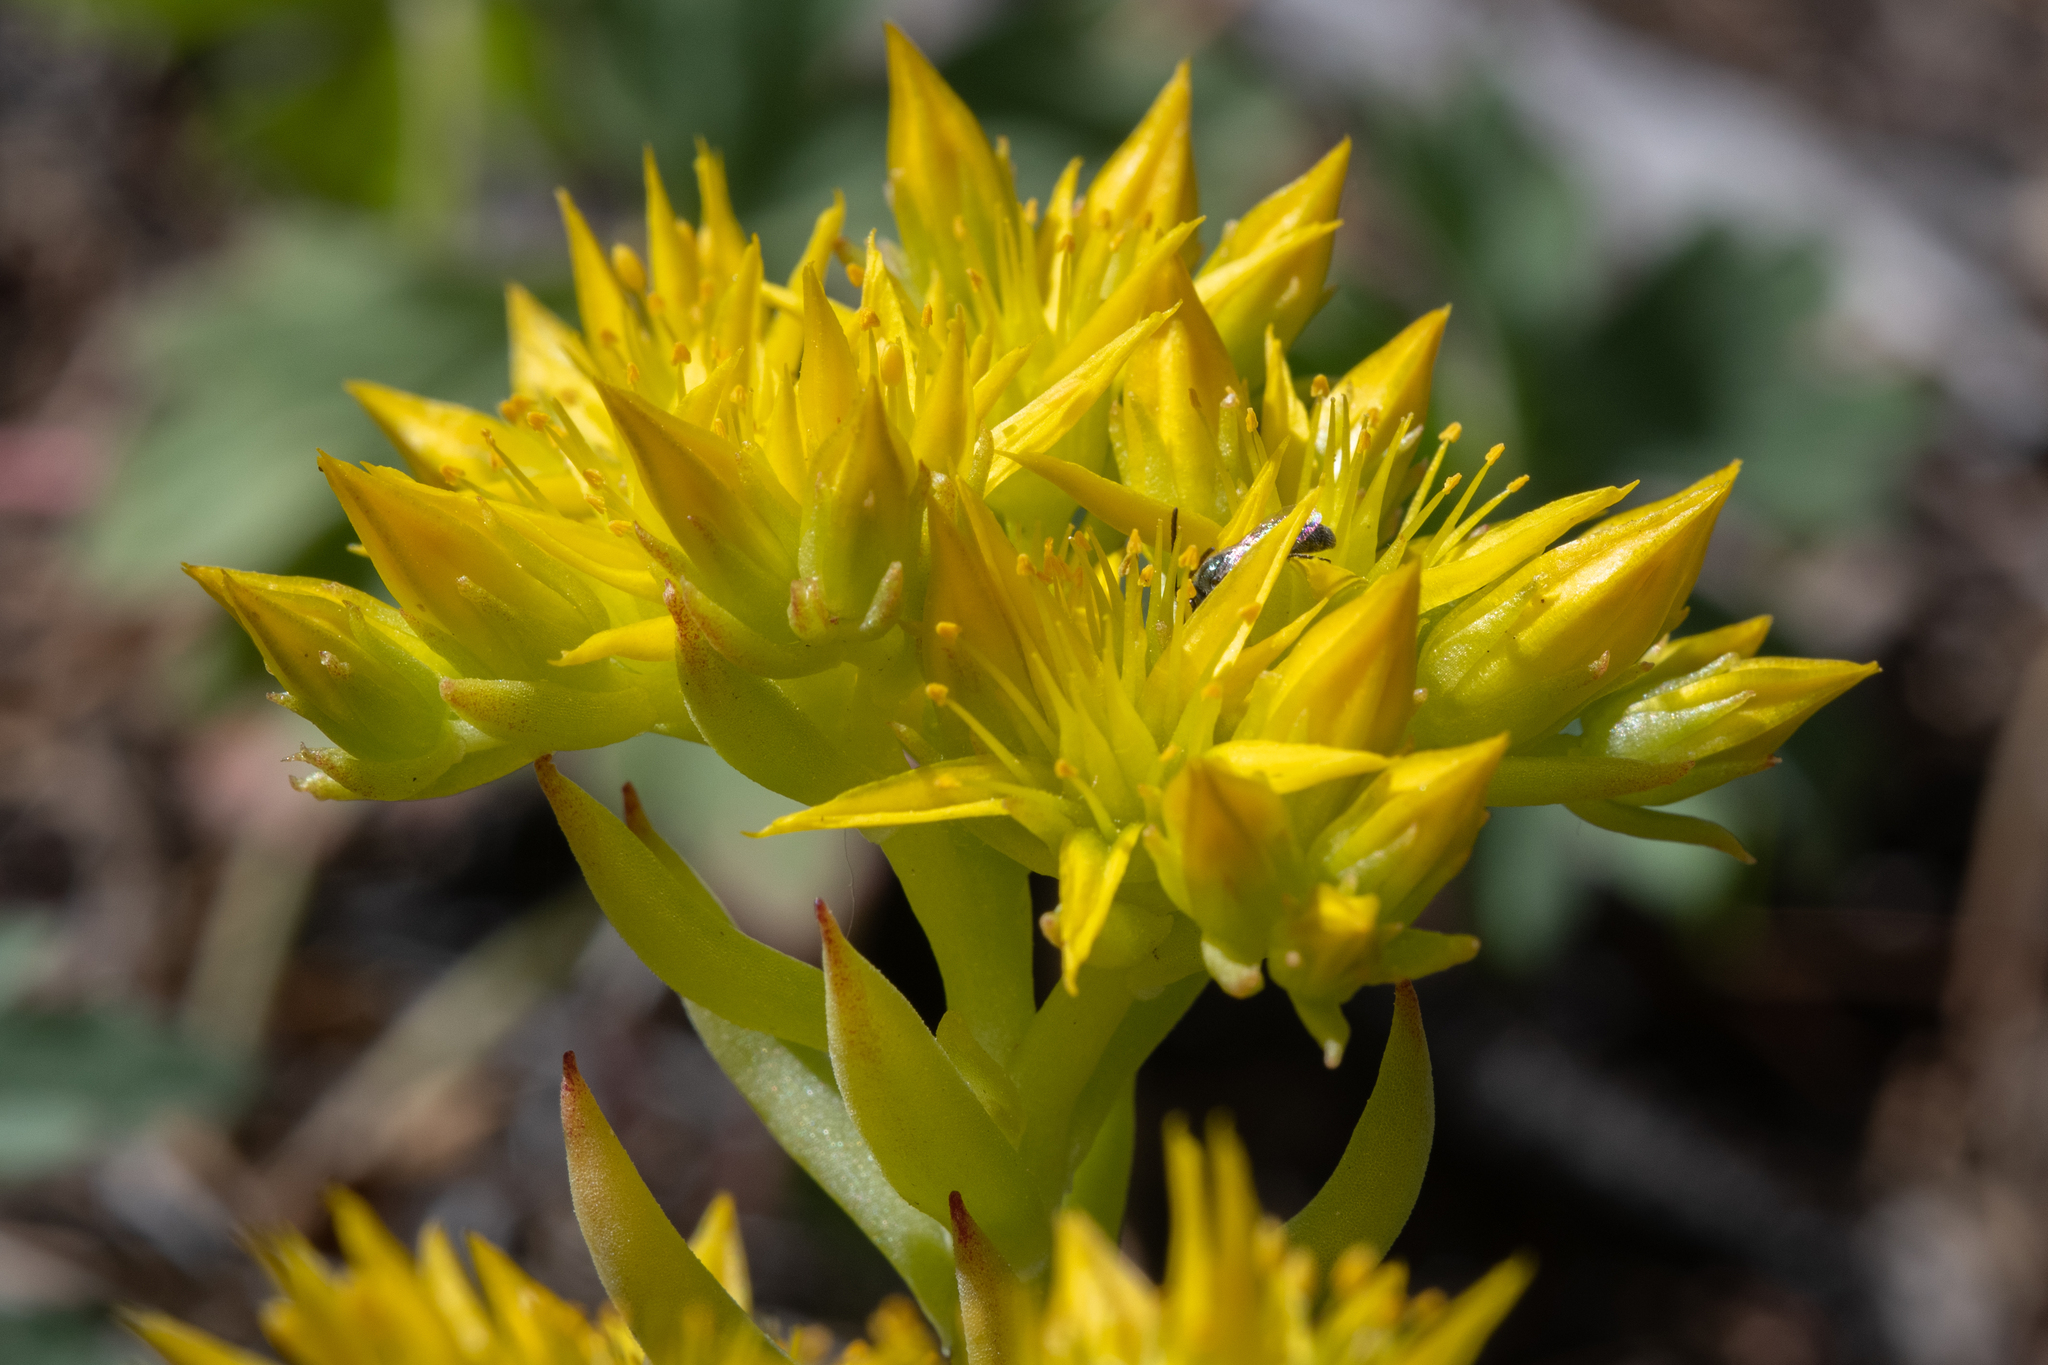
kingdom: Plantae
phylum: Tracheophyta
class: Magnoliopsida
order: Saxifragales
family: Crassulaceae
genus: Sedum
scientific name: Sedum lanceolatum
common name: Common stonecrop
